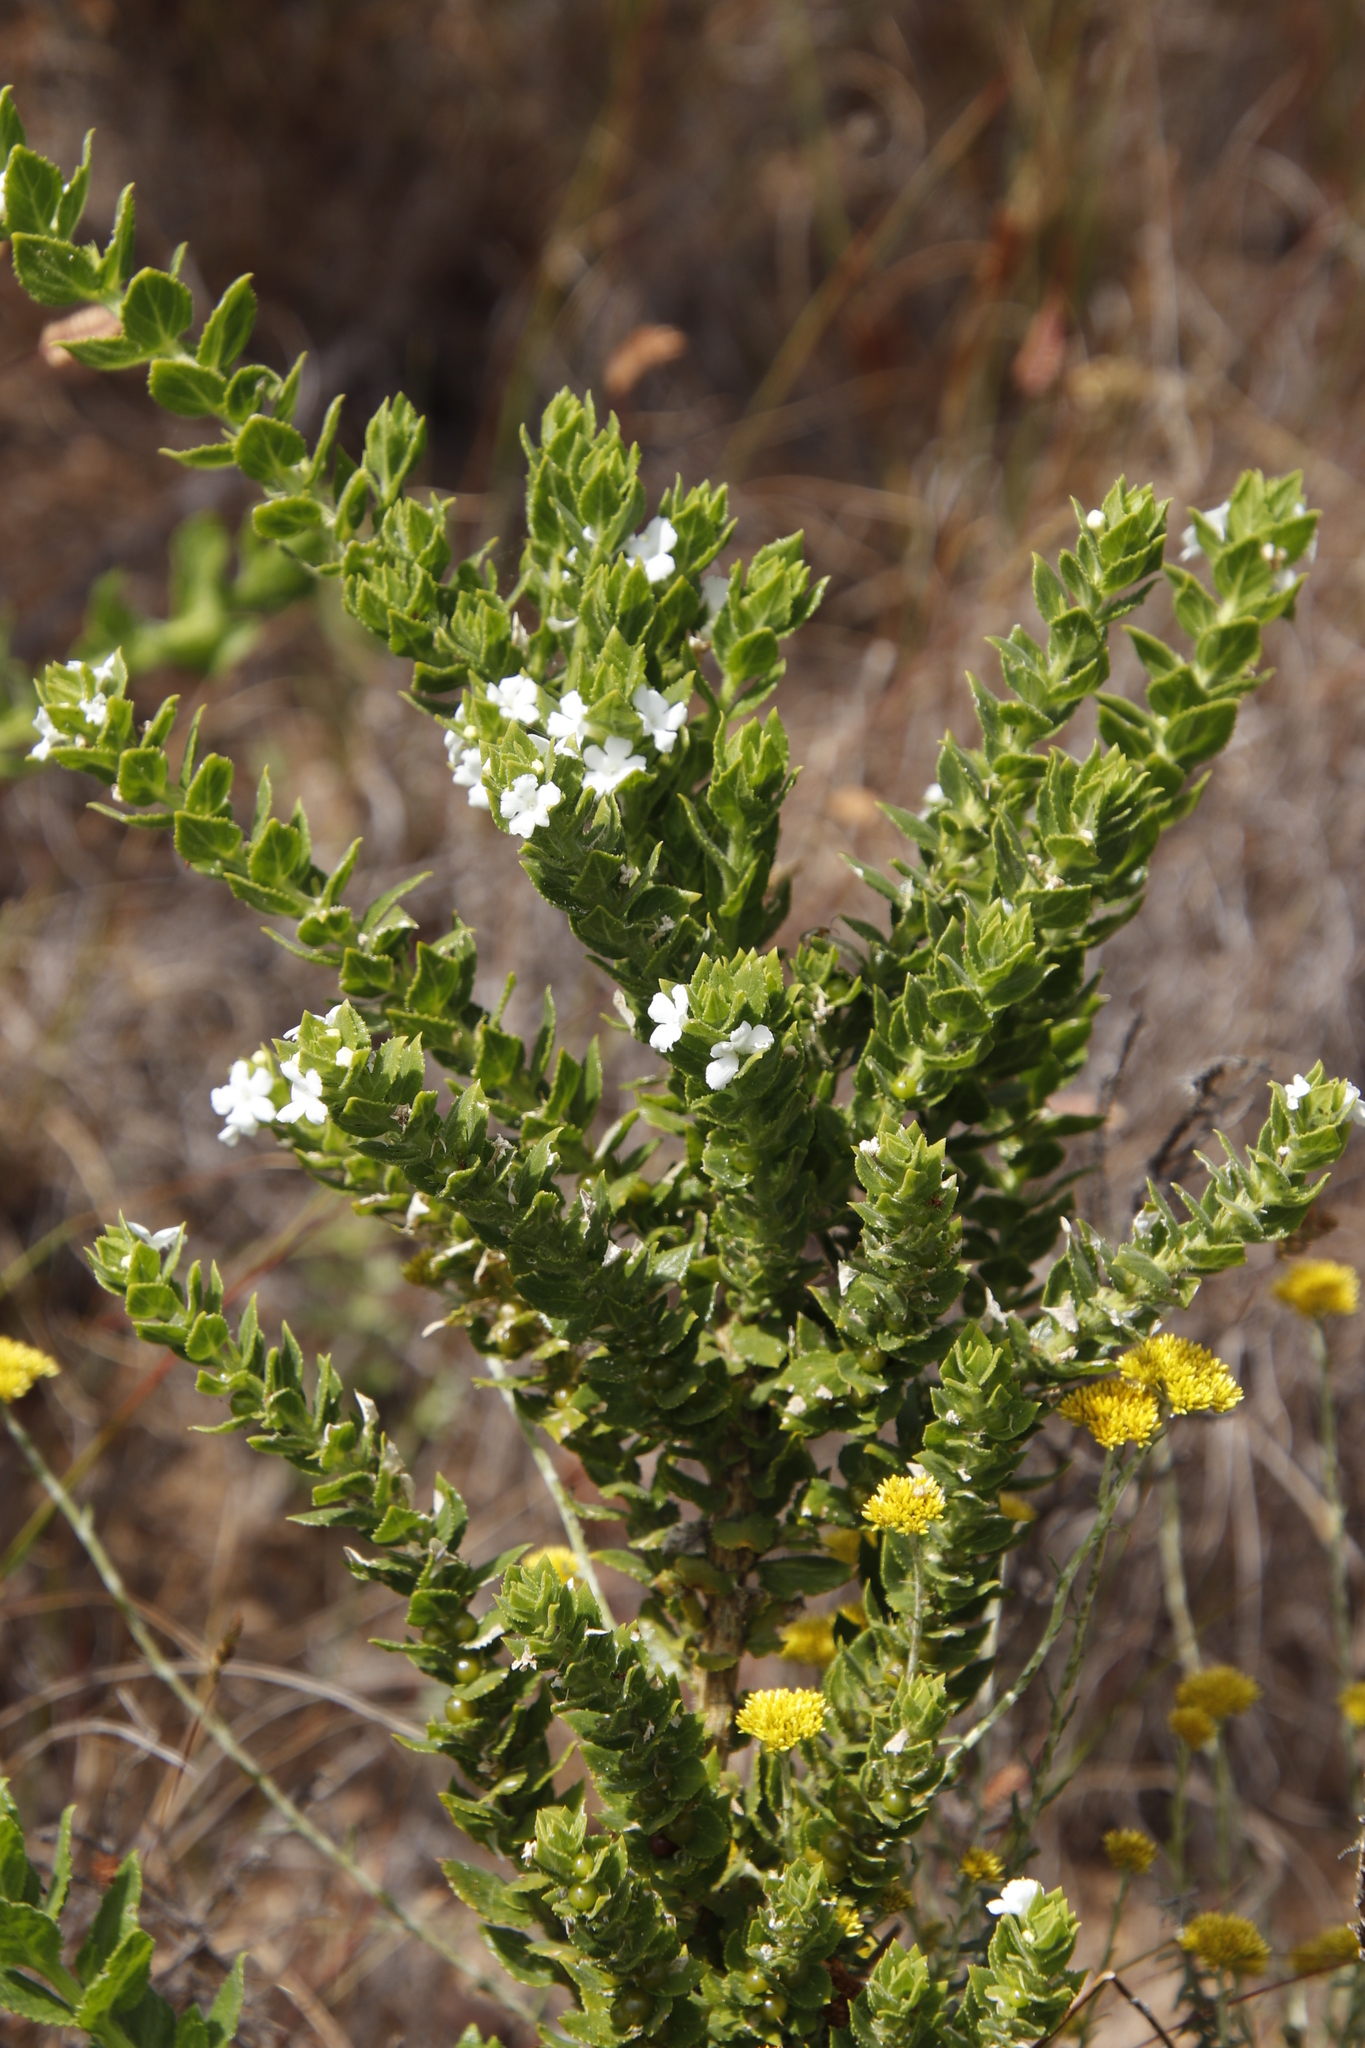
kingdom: Plantae
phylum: Tracheophyta
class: Magnoliopsida
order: Lamiales
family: Scrophulariaceae
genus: Oftia
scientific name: Oftia africana
